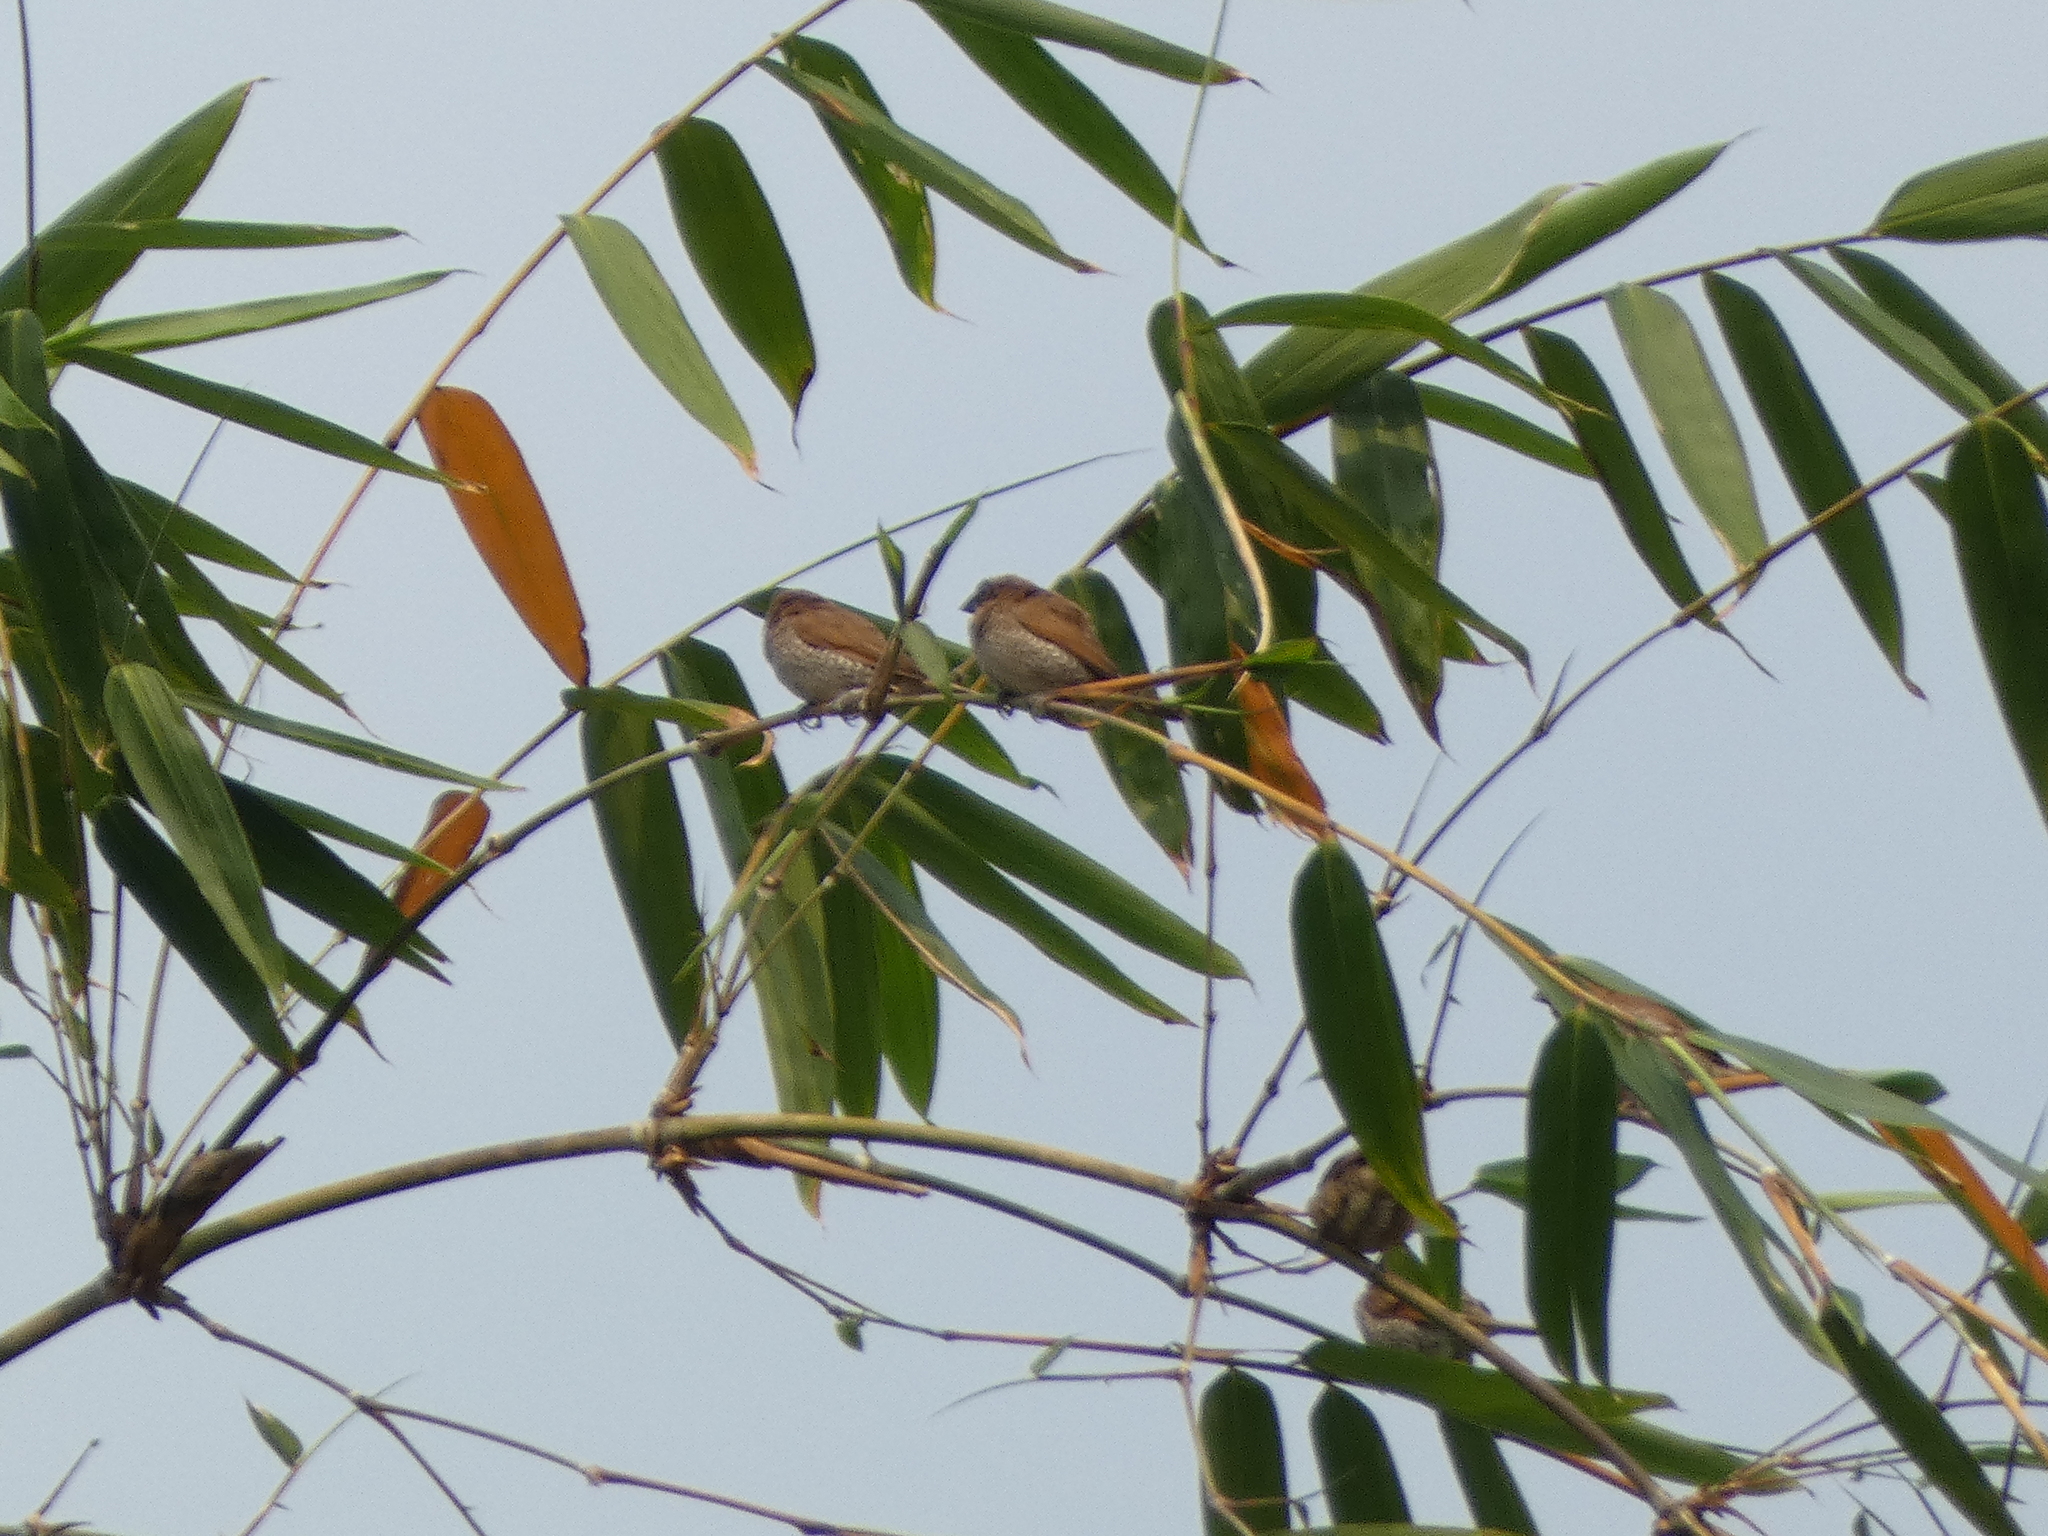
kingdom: Animalia
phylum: Chordata
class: Aves
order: Passeriformes
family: Estrildidae
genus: Lonchura
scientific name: Lonchura punctulata
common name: Scaly-breasted munia
